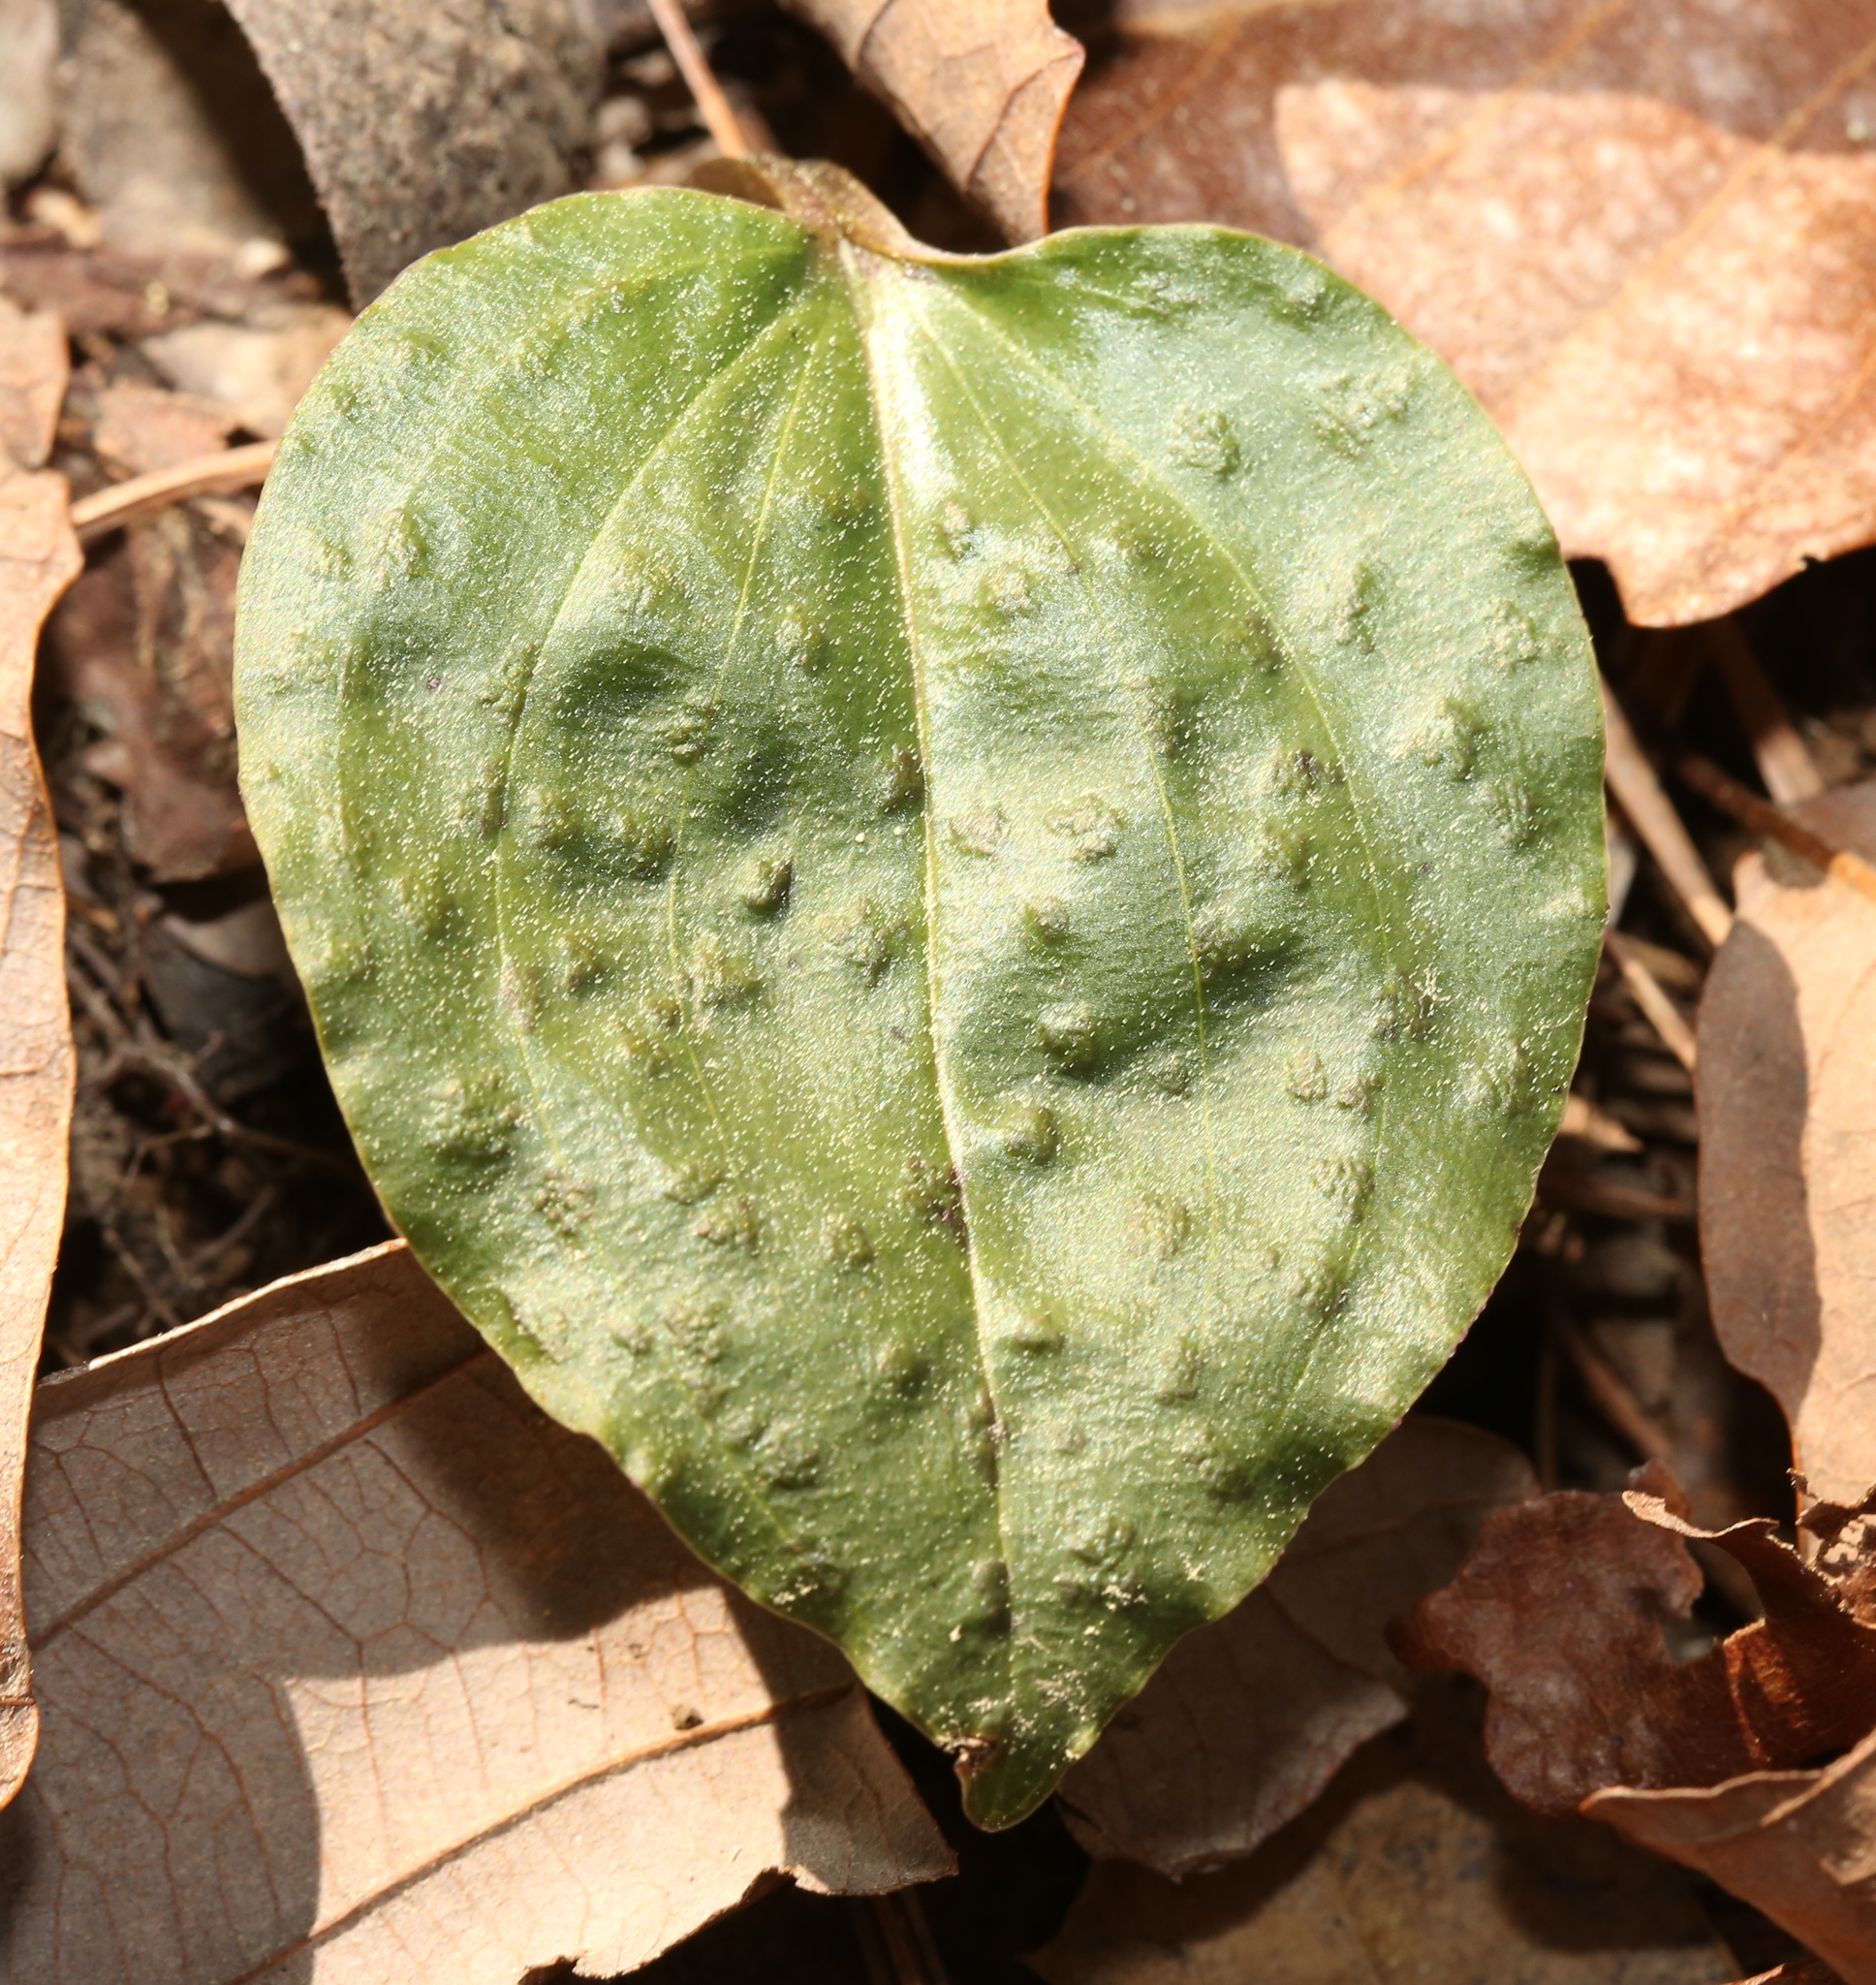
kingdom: Plantae
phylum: Tracheophyta
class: Liliopsida
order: Asparagales
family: Orchidaceae
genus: Tipularia
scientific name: Tipularia discolor
